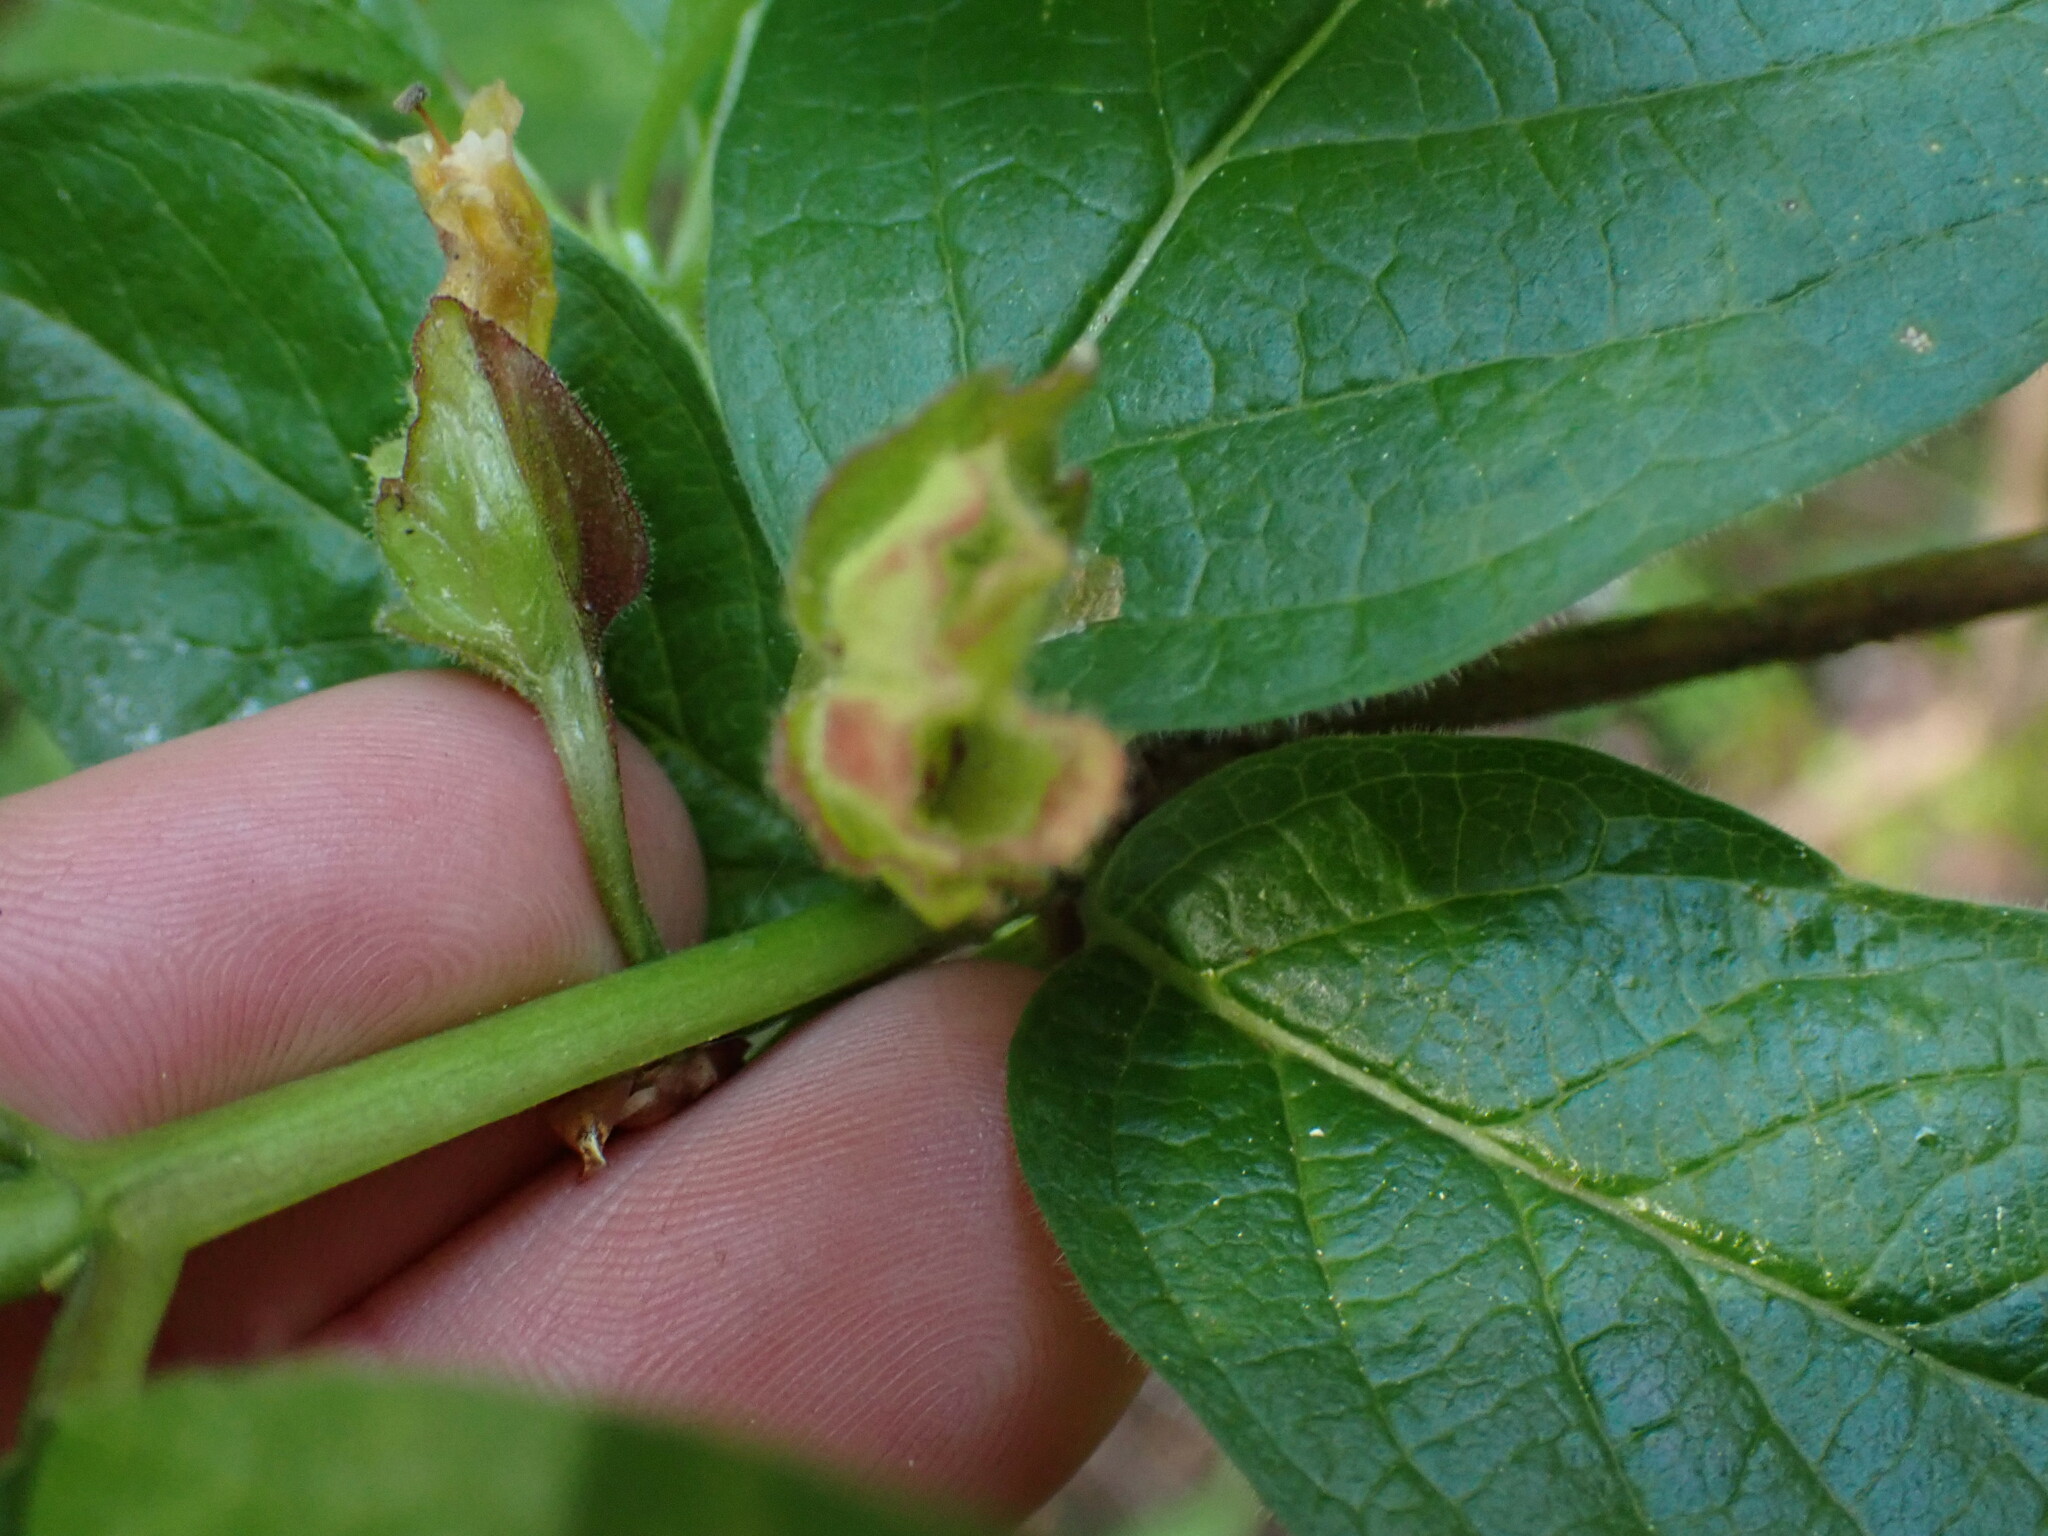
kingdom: Plantae
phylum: Tracheophyta
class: Magnoliopsida
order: Dipsacales
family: Caprifoliaceae
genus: Lonicera
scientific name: Lonicera involucrata
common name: Californian honeysuckle
